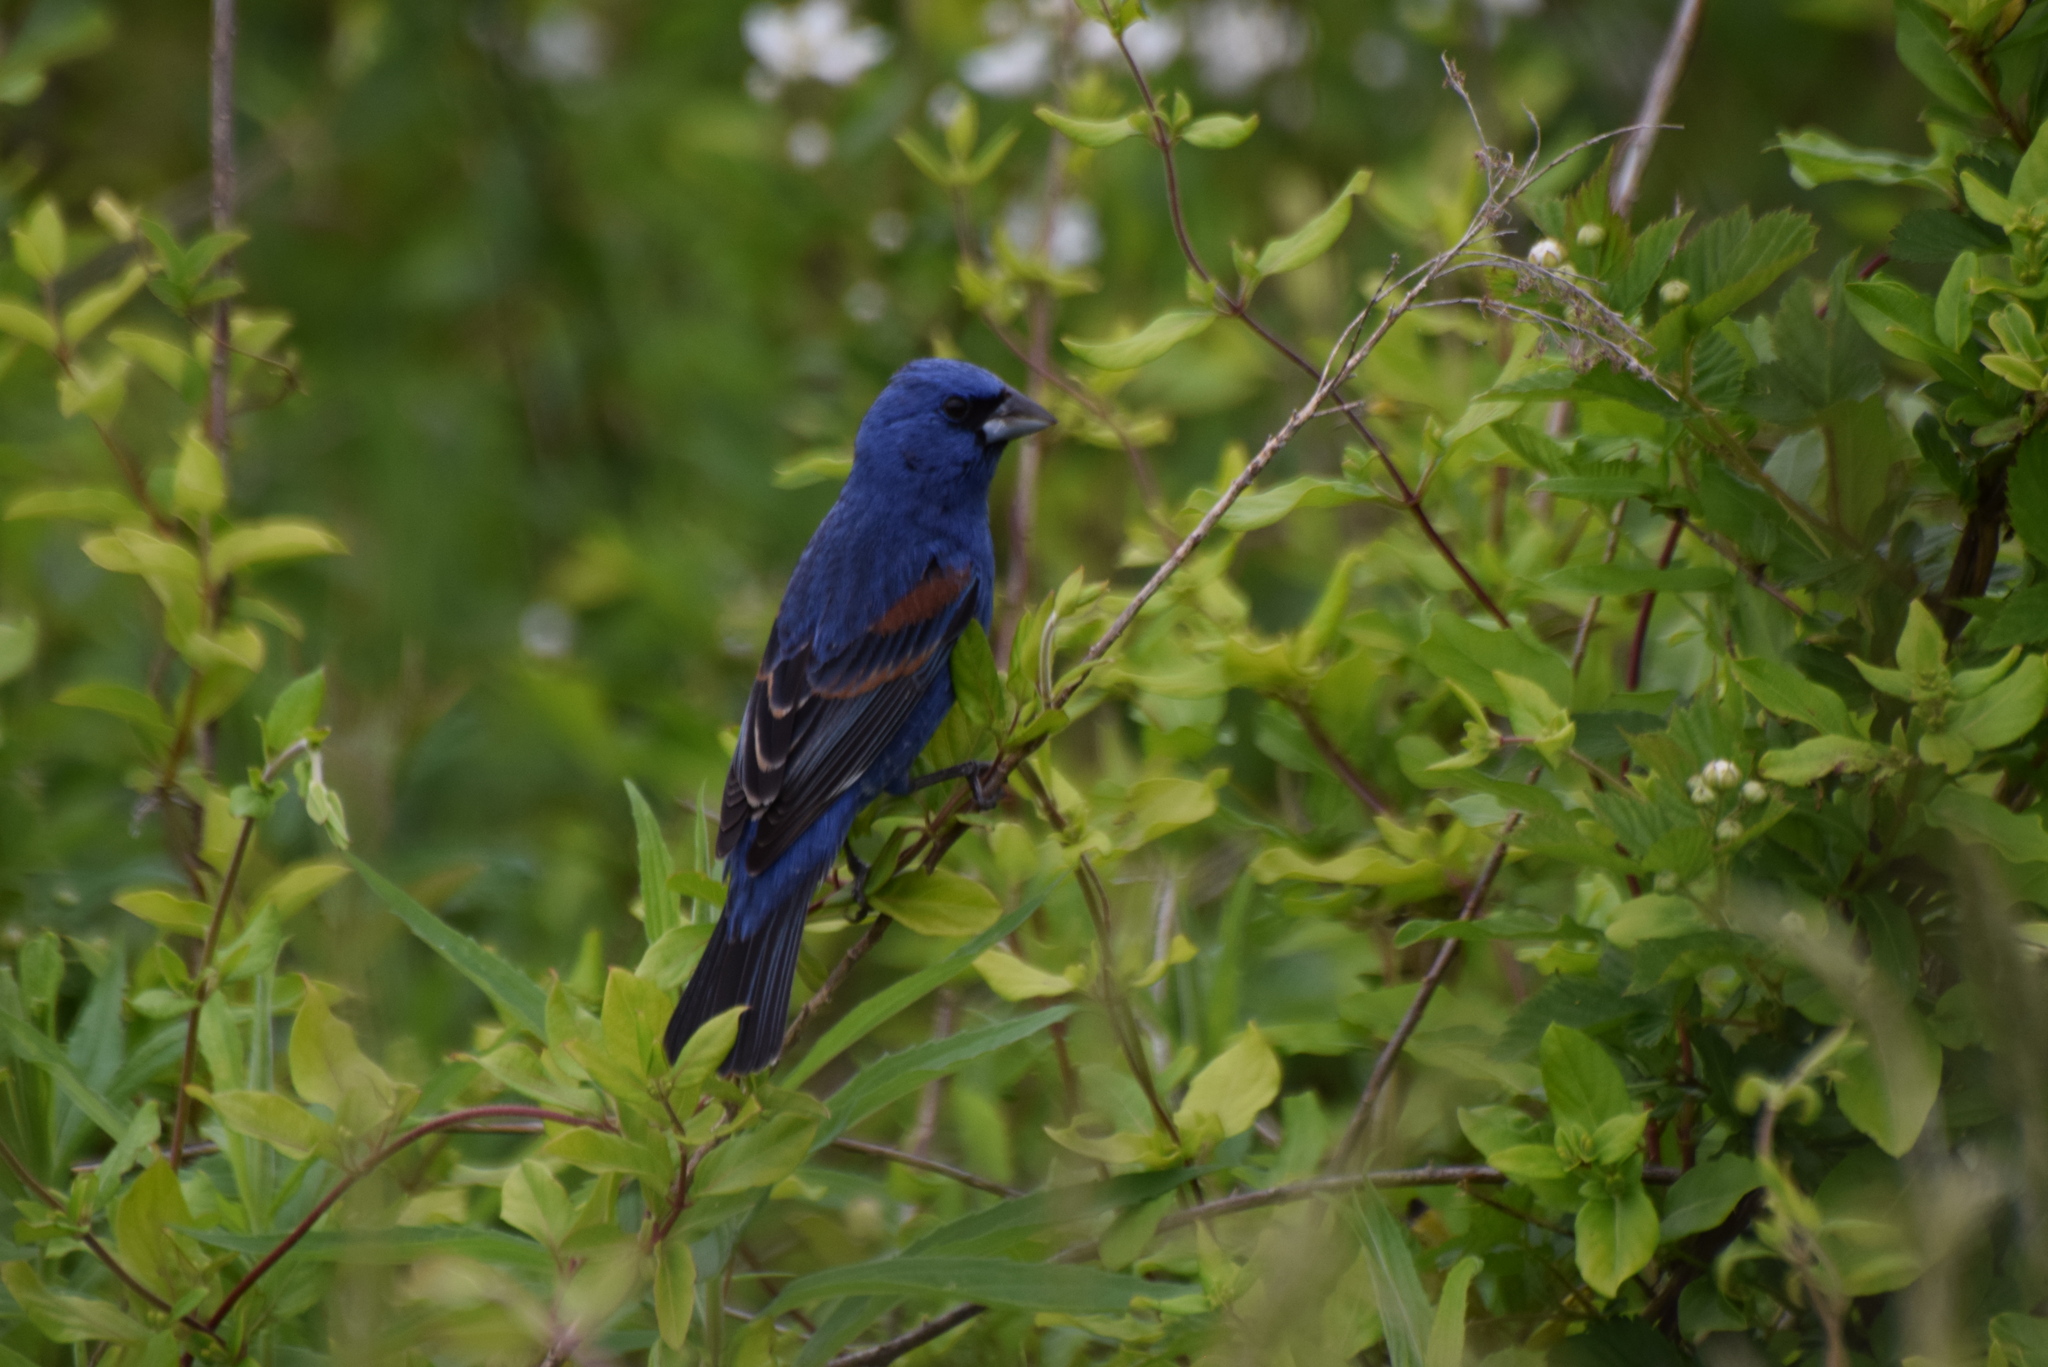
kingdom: Animalia
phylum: Chordata
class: Aves
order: Passeriformes
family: Cardinalidae
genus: Passerina
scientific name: Passerina caerulea
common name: Blue grosbeak
